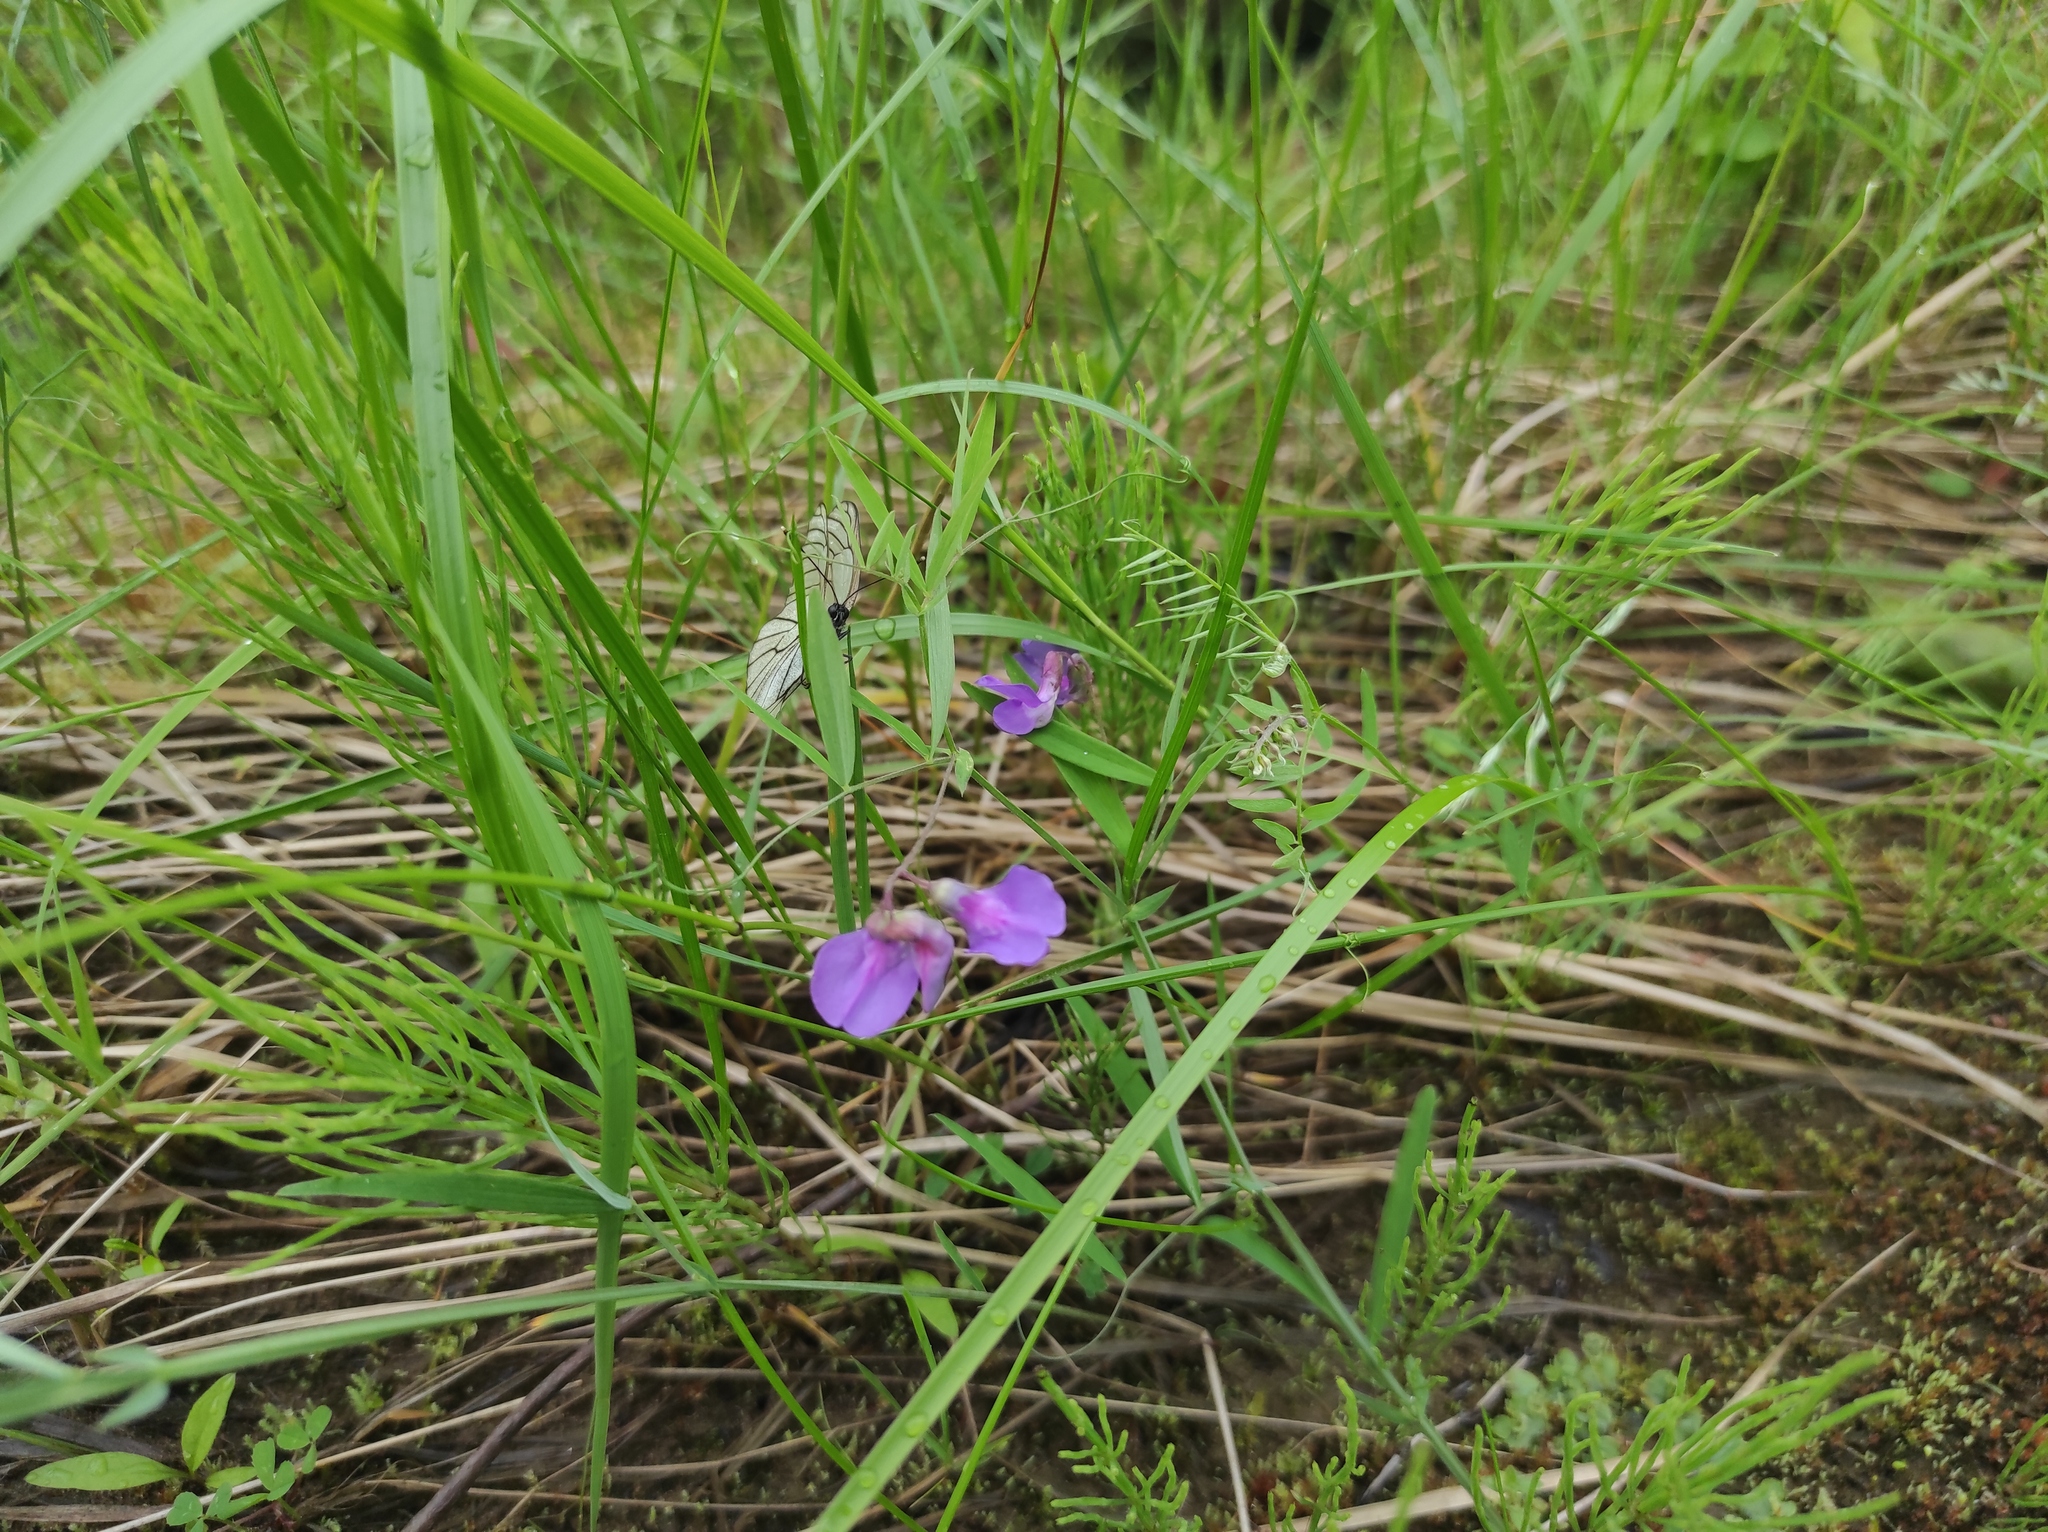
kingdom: Plantae
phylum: Tracheophyta
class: Magnoliopsida
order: Fabales
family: Fabaceae
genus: Lathyrus
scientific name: Lathyrus palustris
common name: Marsh pea
